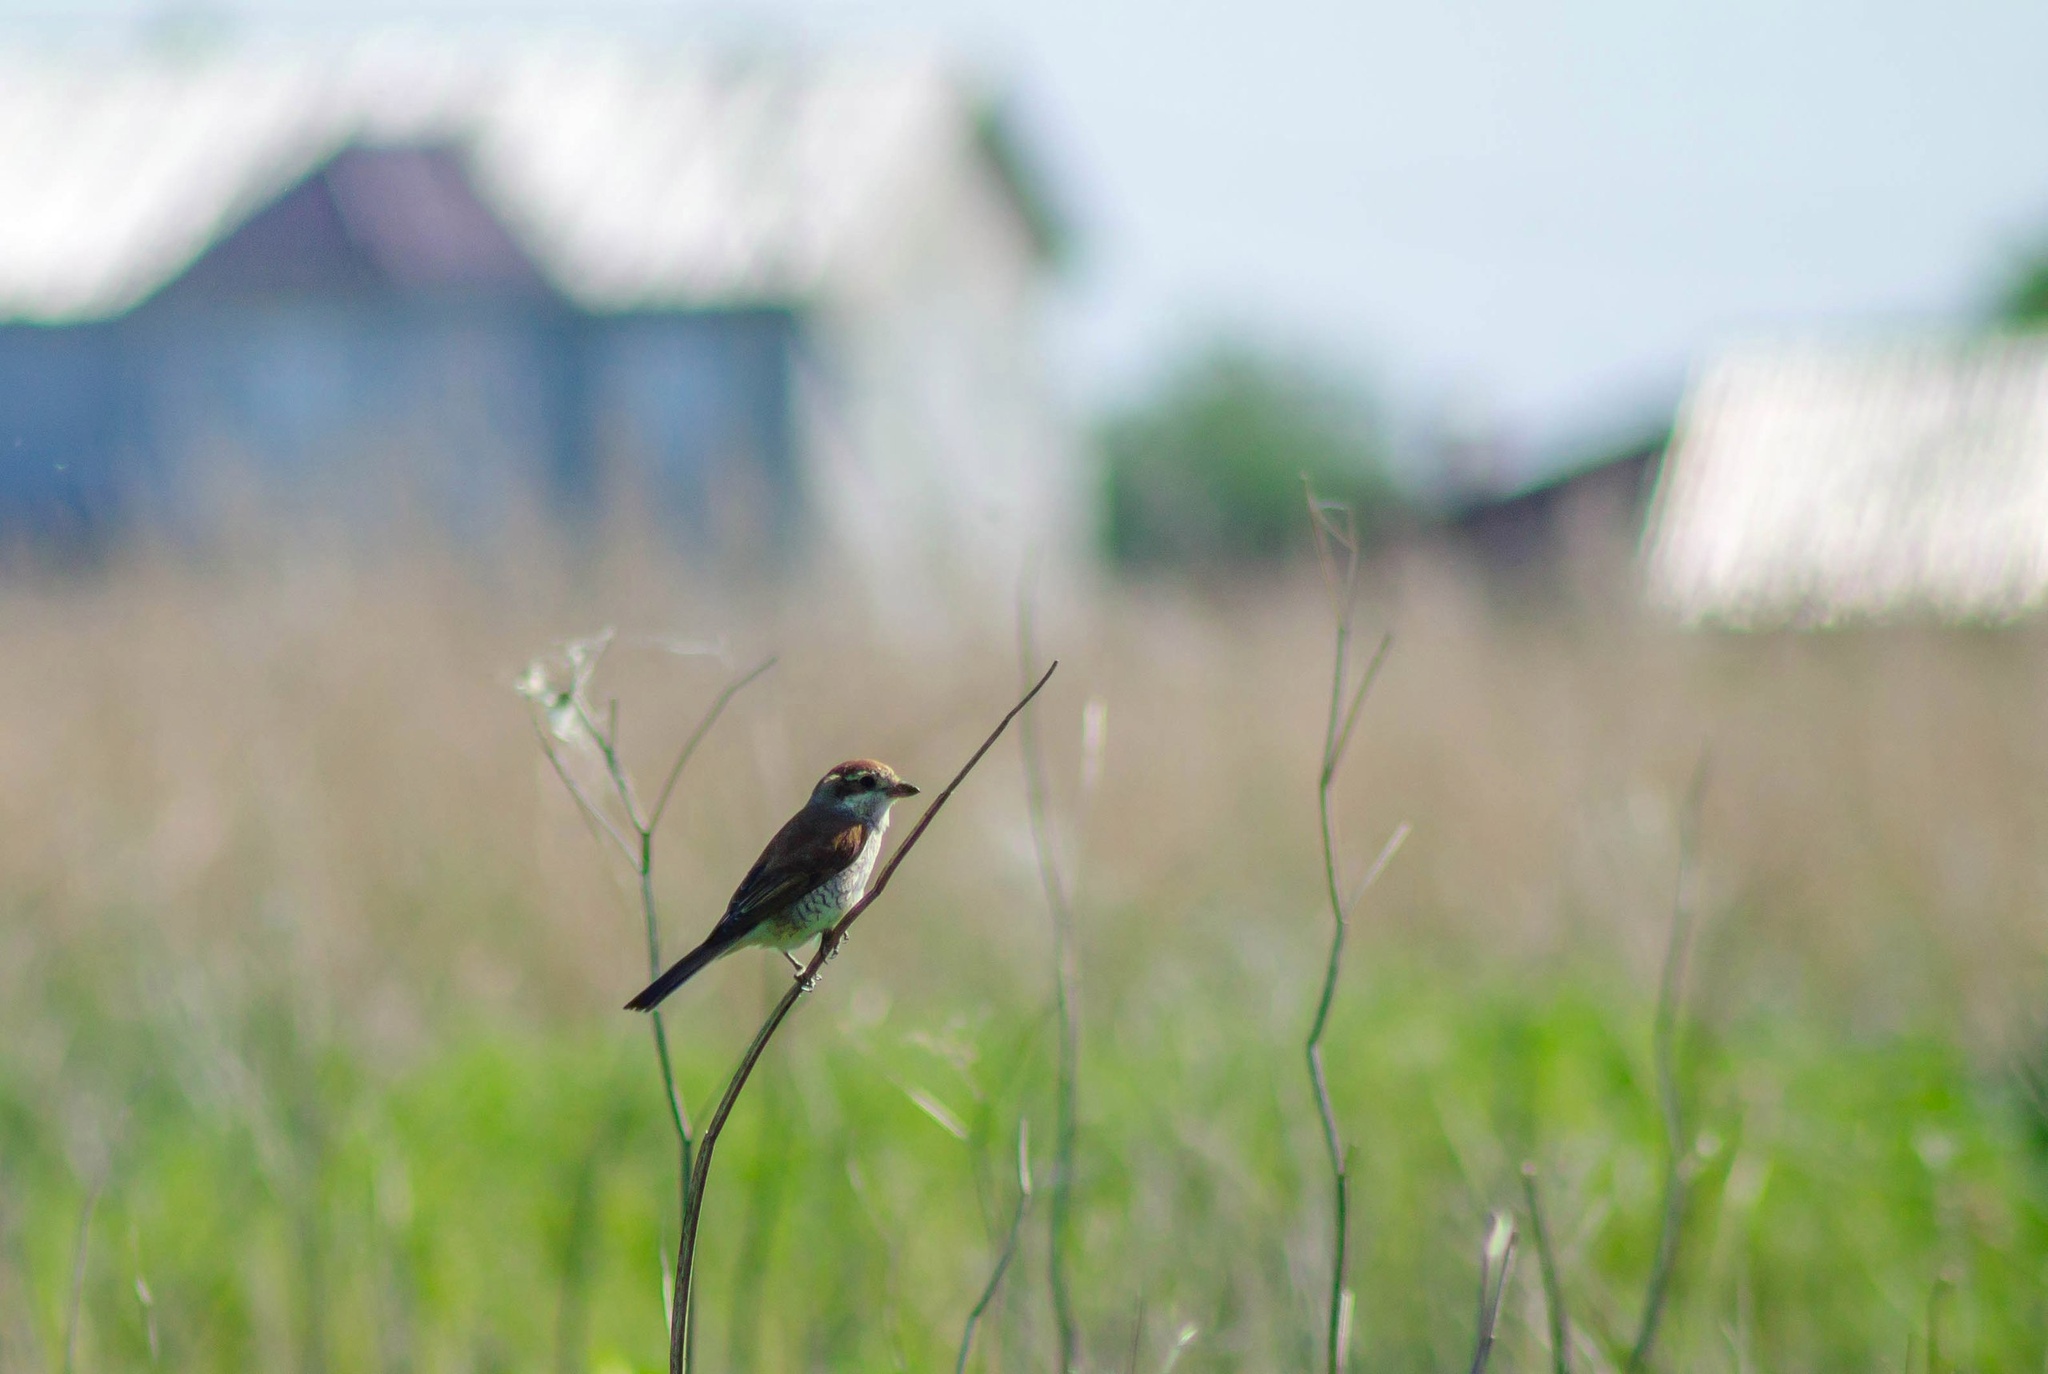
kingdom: Animalia
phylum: Chordata
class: Aves
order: Passeriformes
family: Laniidae
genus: Lanius
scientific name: Lanius collurio
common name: Red-backed shrike
